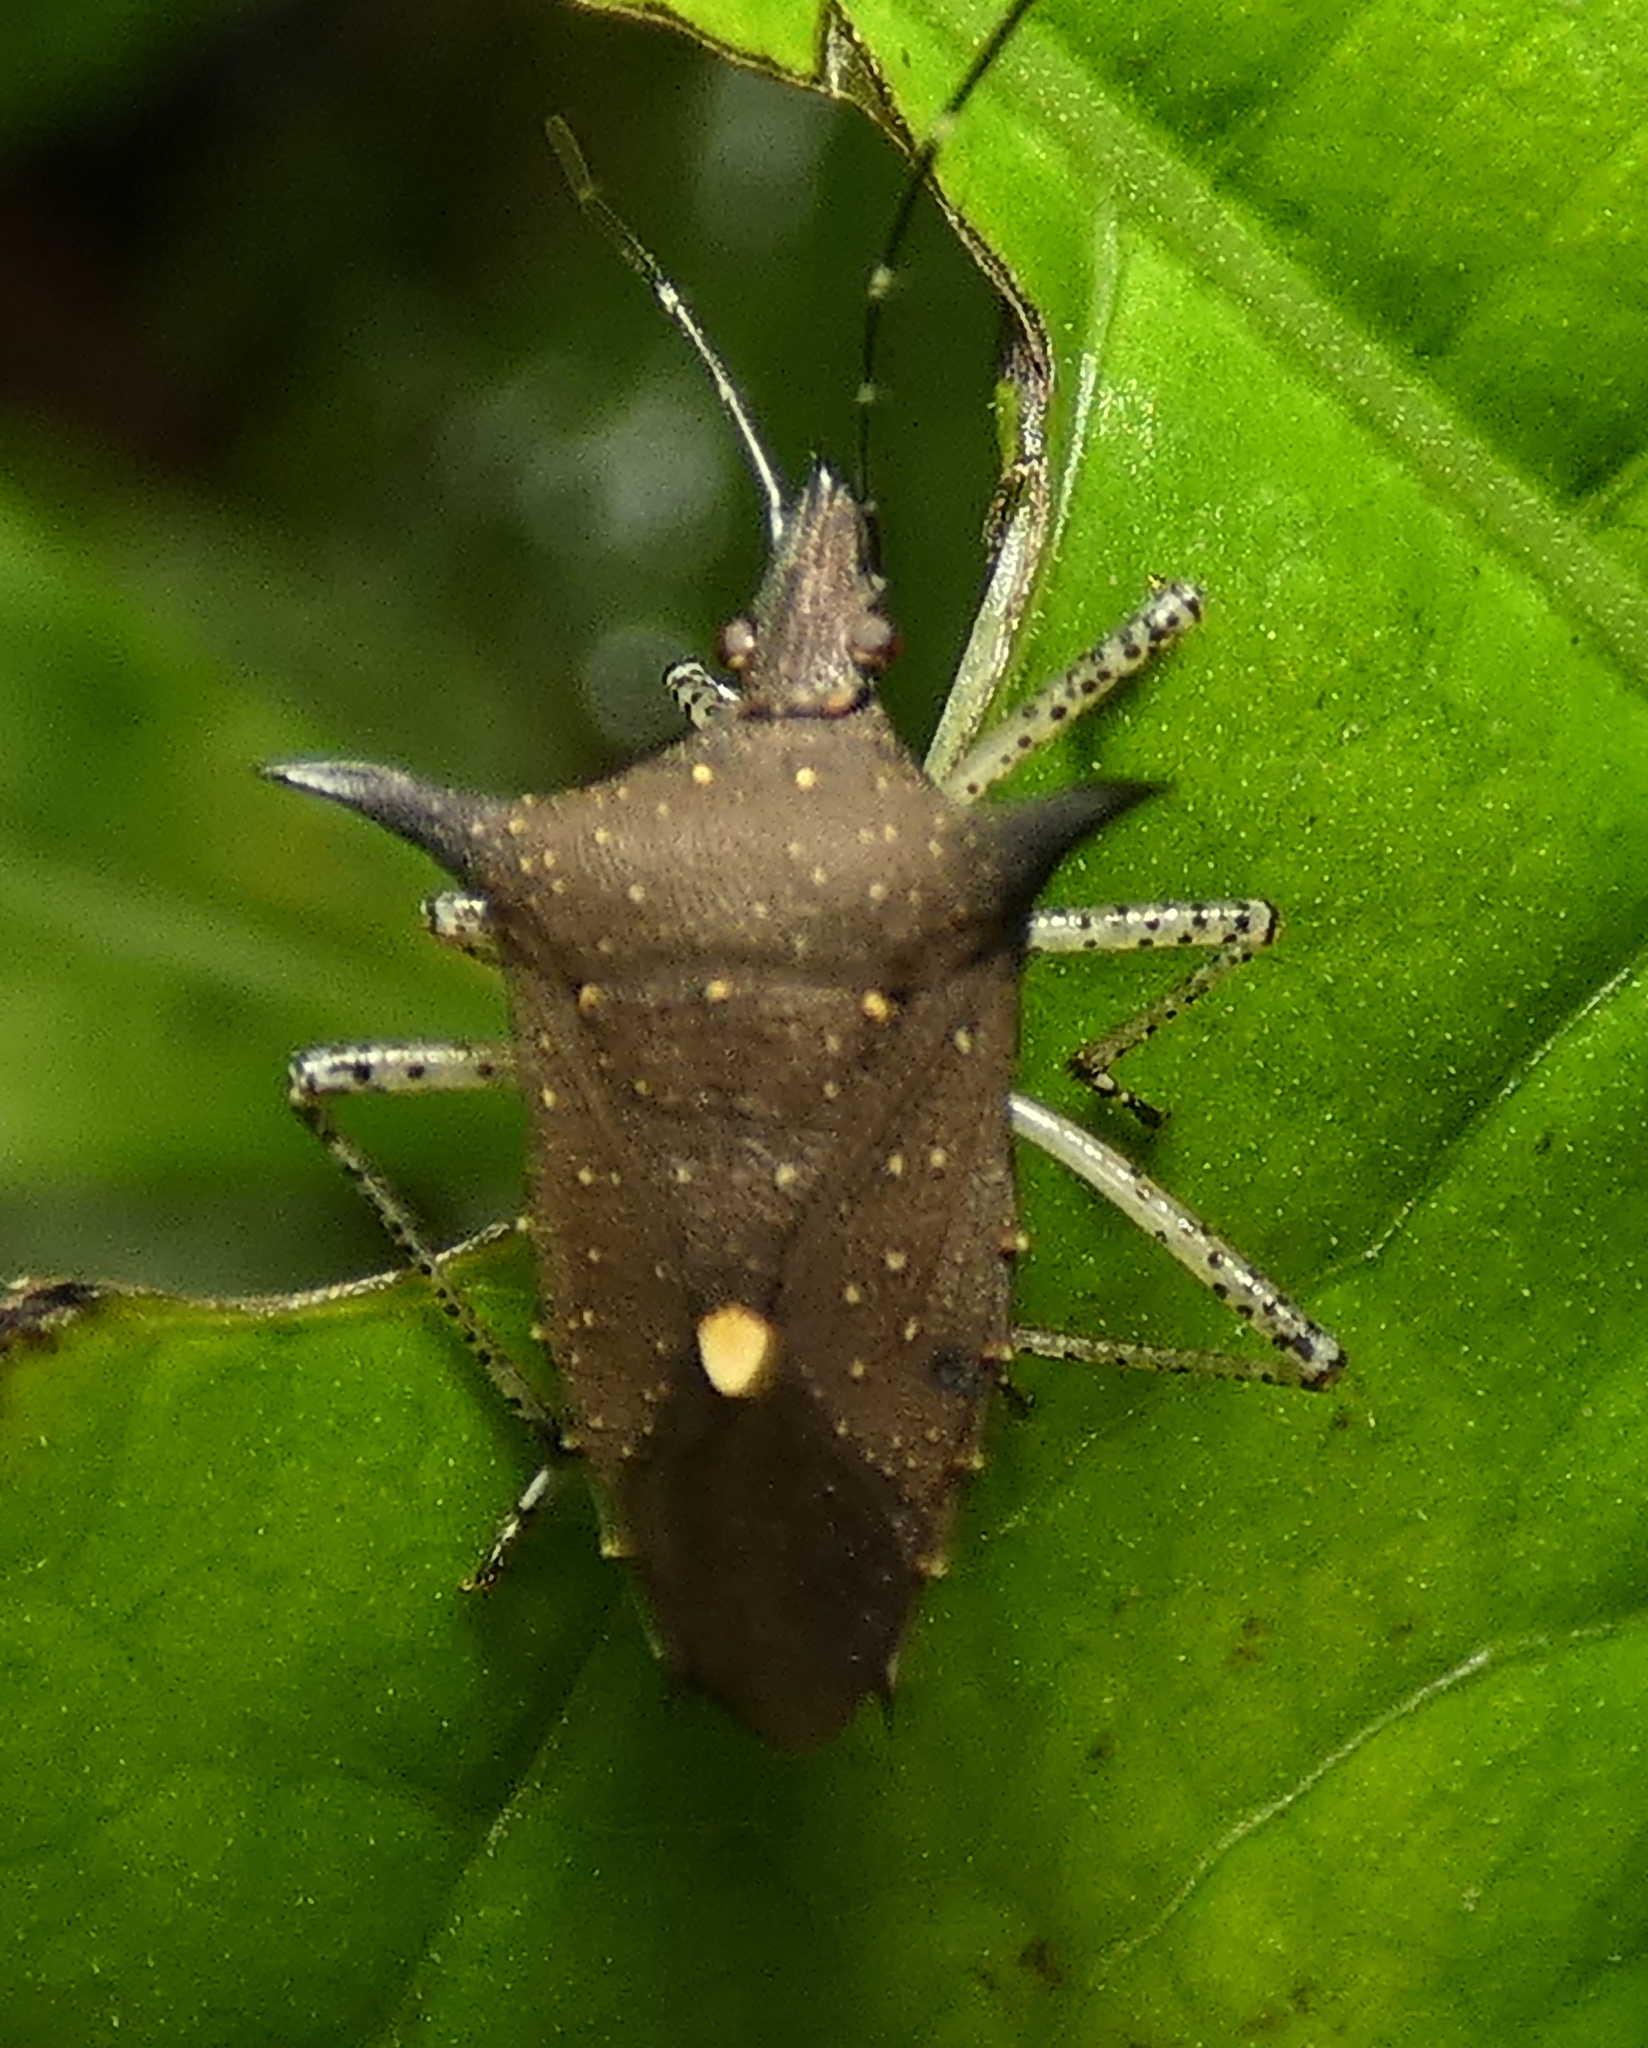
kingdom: Animalia
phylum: Arthropoda
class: Insecta
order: Hemiptera
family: Pentatomidae
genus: Proxys
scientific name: Proxys albopunctulatus
